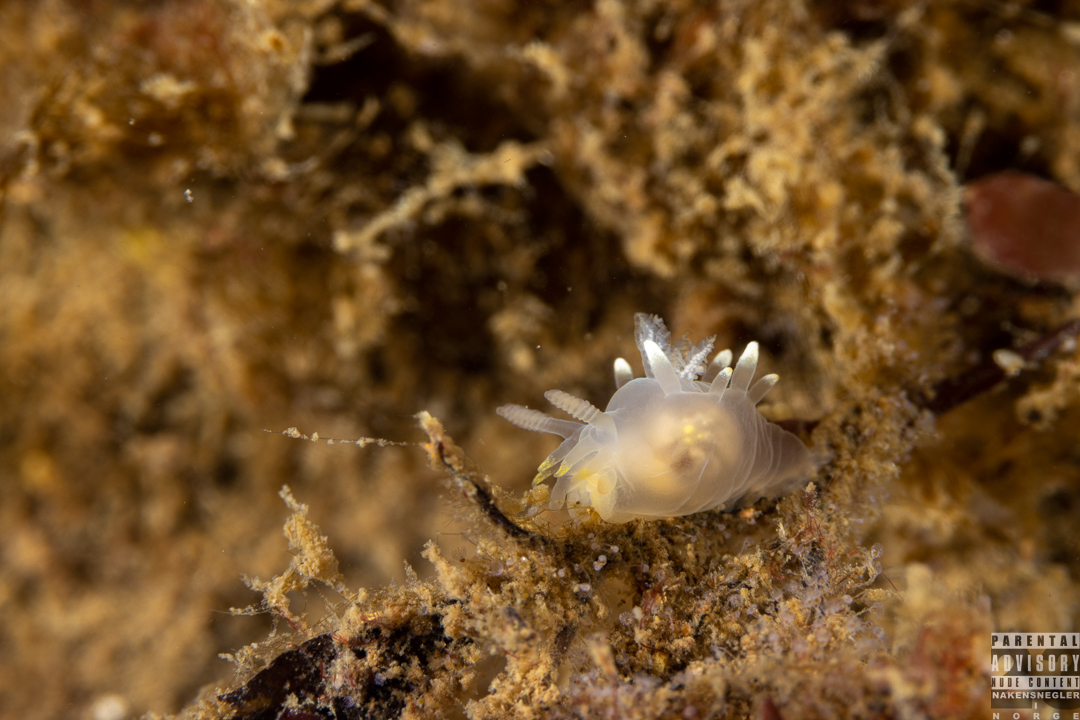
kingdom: Animalia
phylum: Mollusca
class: Gastropoda
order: Nudibranchia
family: Goniodorididae
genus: Ancula
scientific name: Ancula gibbosa
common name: Atlantic ancula
